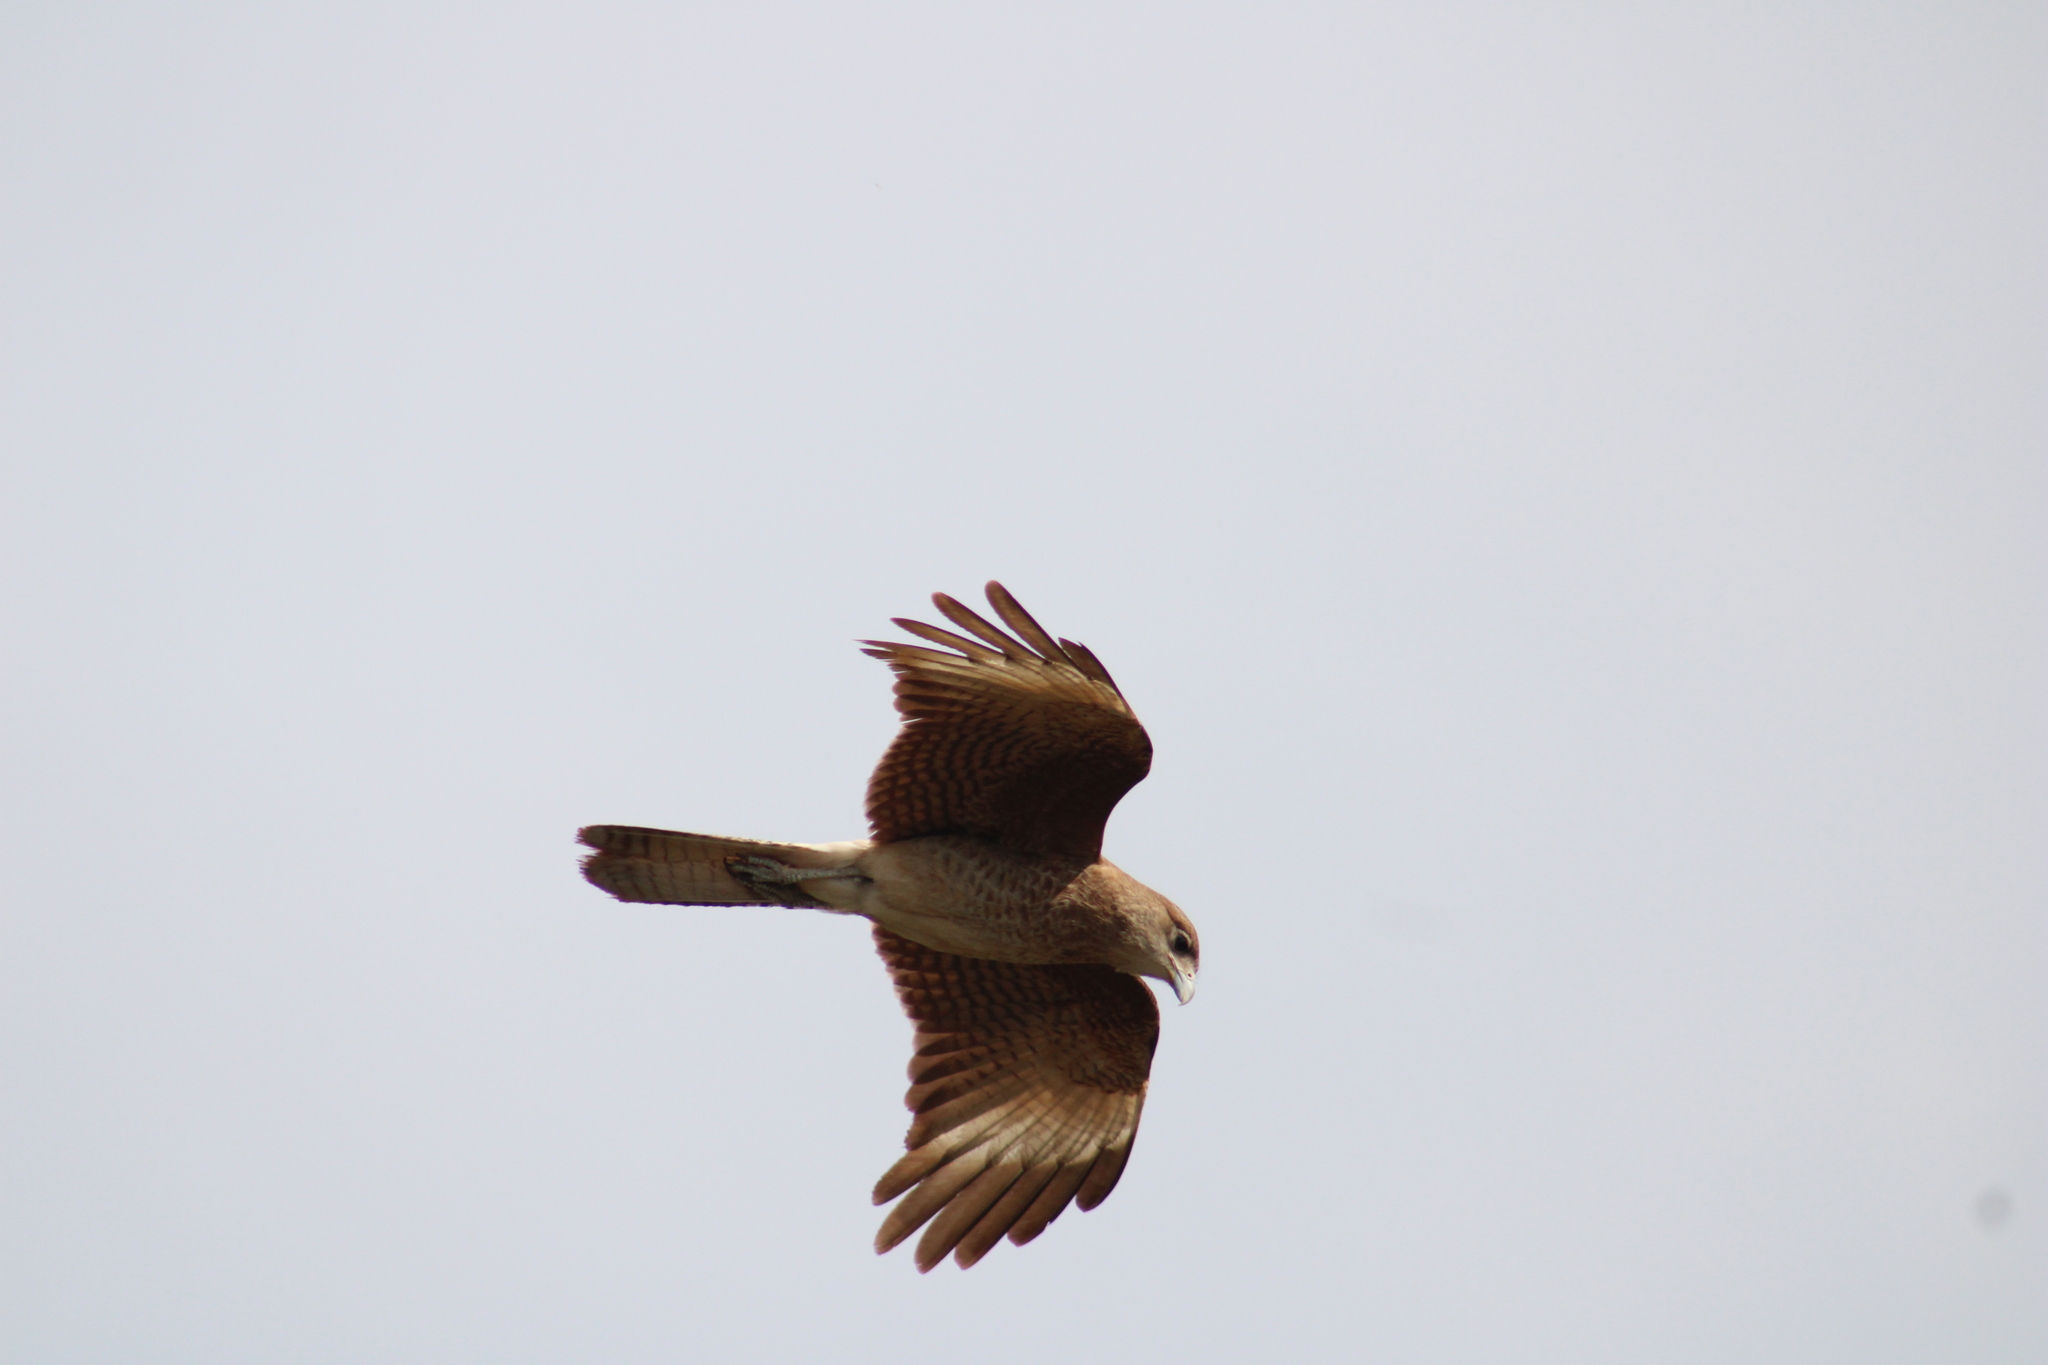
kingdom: Animalia
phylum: Chordata
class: Aves
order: Falconiformes
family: Falconidae
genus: Daptrius
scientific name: Daptrius
